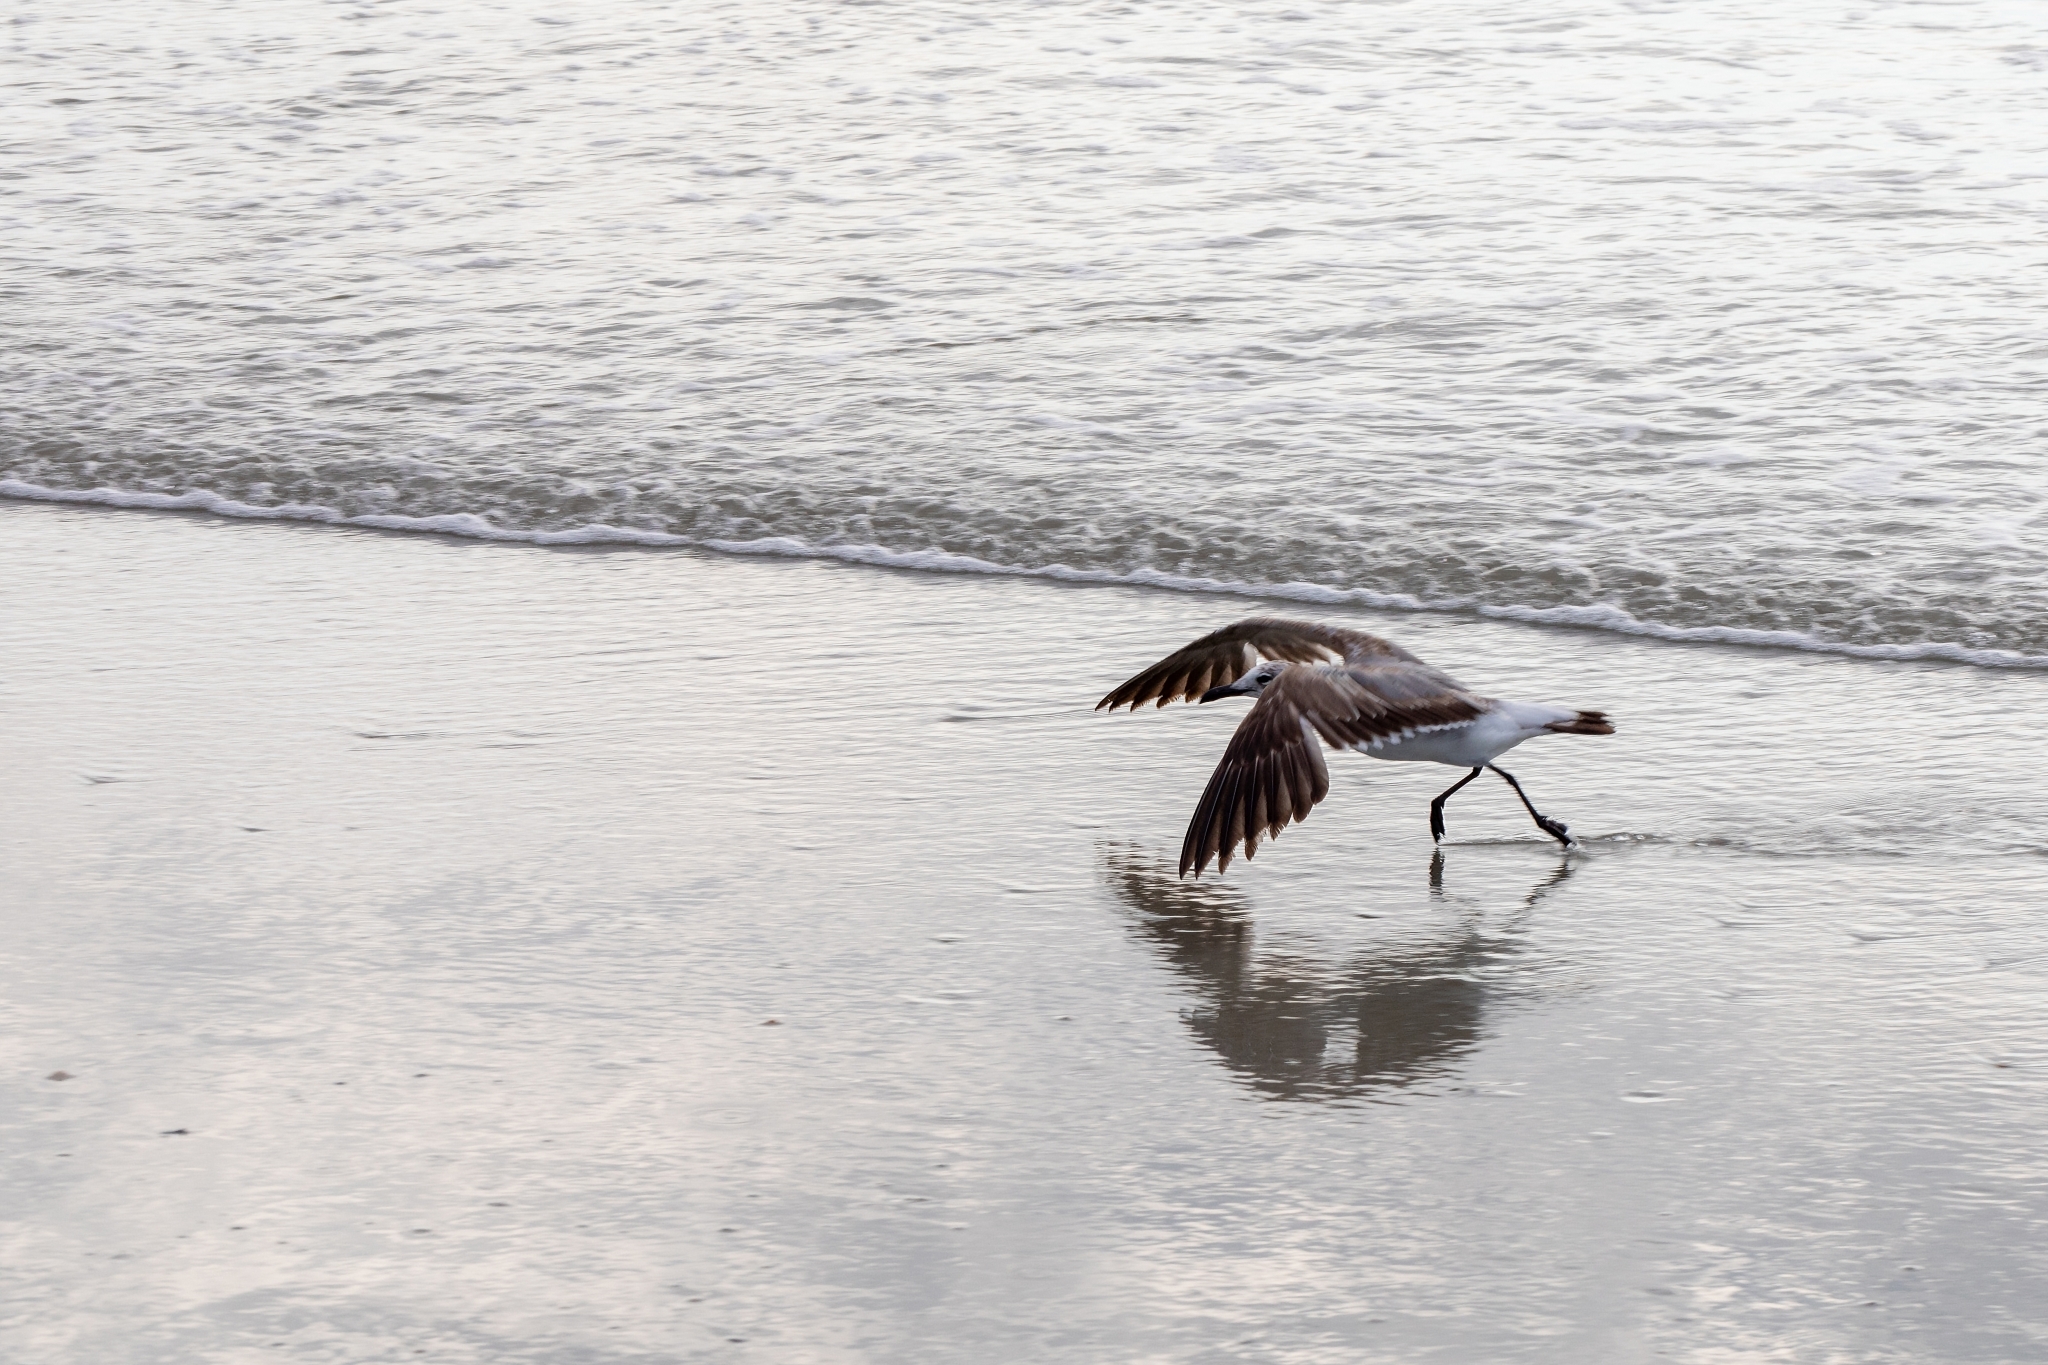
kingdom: Animalia
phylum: Chordata
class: Aves
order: Charadriiformes
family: Laridae
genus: Leucophaeus
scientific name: Leucophaeus atricilla
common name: Laughing gull
